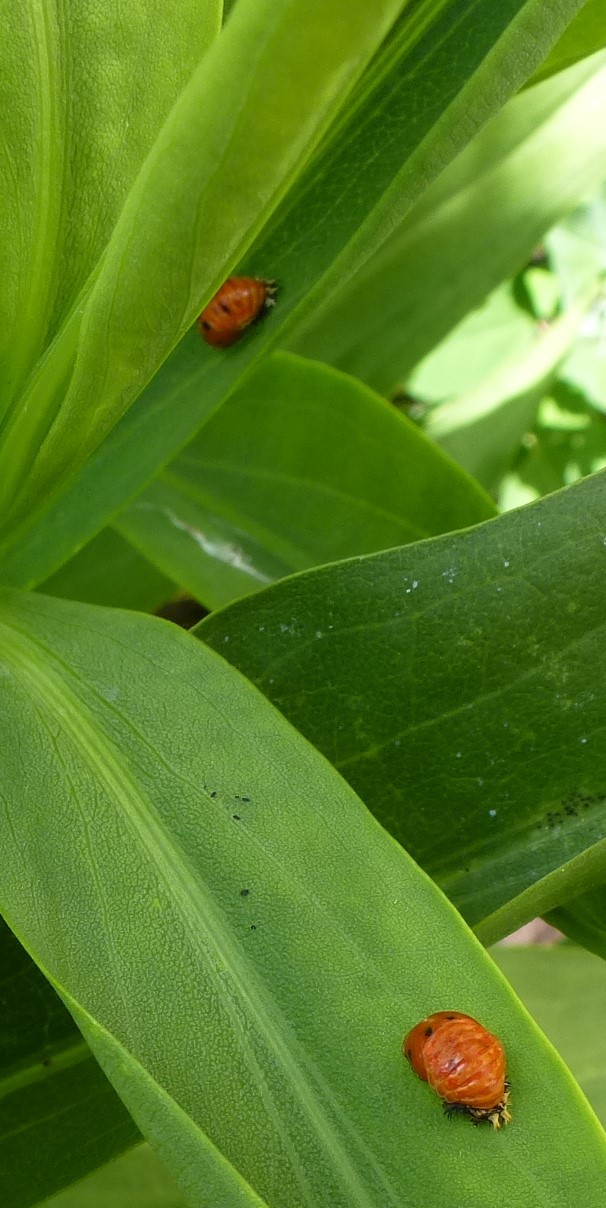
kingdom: Animalia
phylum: Arthropoda
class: Insecta
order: Coleoptera
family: Coccinellidae
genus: Harmonia
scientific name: Harmonia axyridis
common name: Harlequin ladybird
